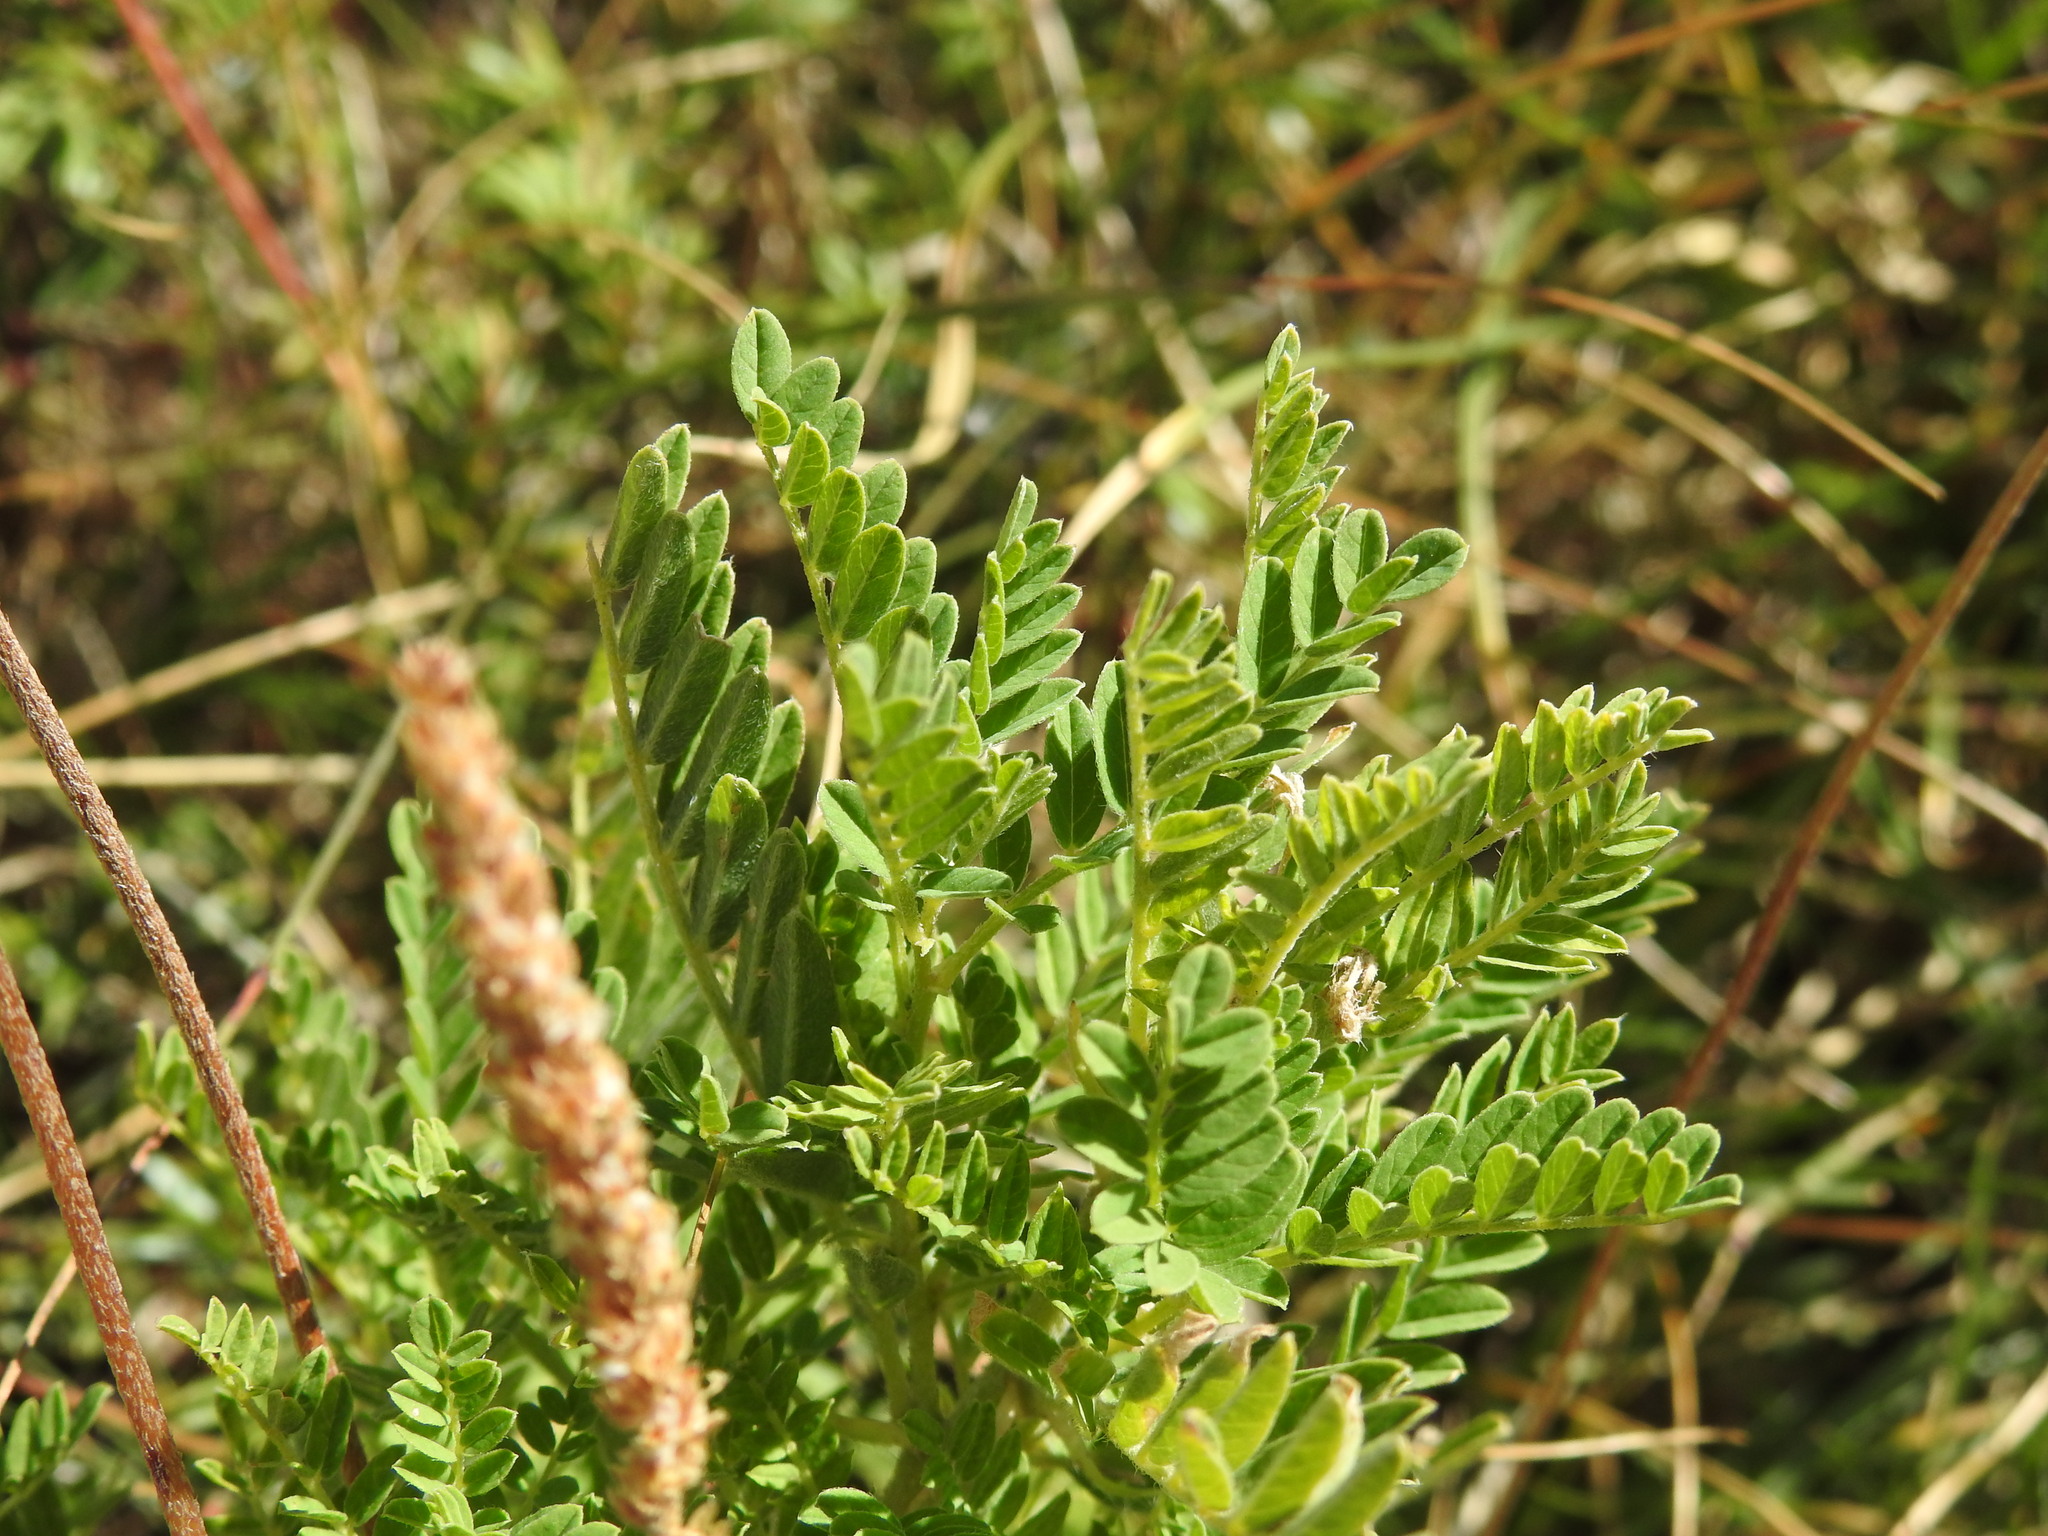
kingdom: Plantae
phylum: Tracheophyta
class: Magnoliopsida
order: Fabales
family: Fabaceae
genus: Astragalus
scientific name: Astragalus penduliflorus
